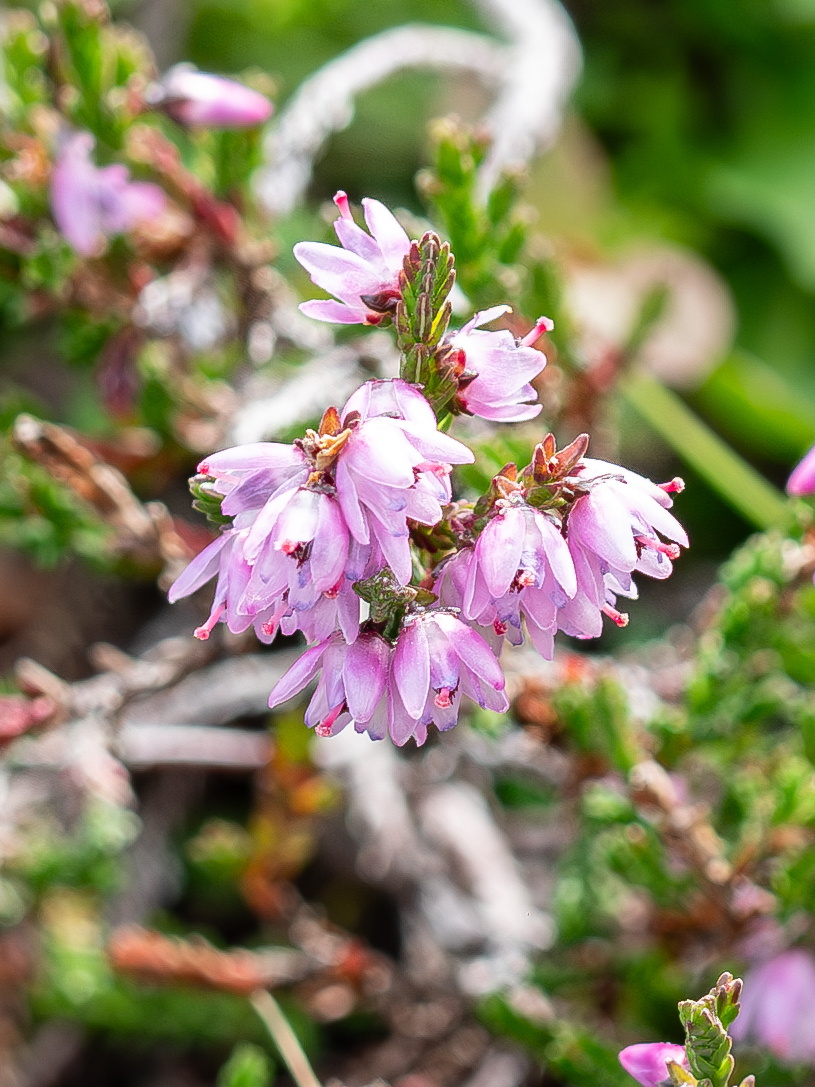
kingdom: Plantae
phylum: Tracheophyta
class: Magnoliopsida
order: Ericales
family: Ericaceae
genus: Calluna
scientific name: Calluna vulgaris
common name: Heather
